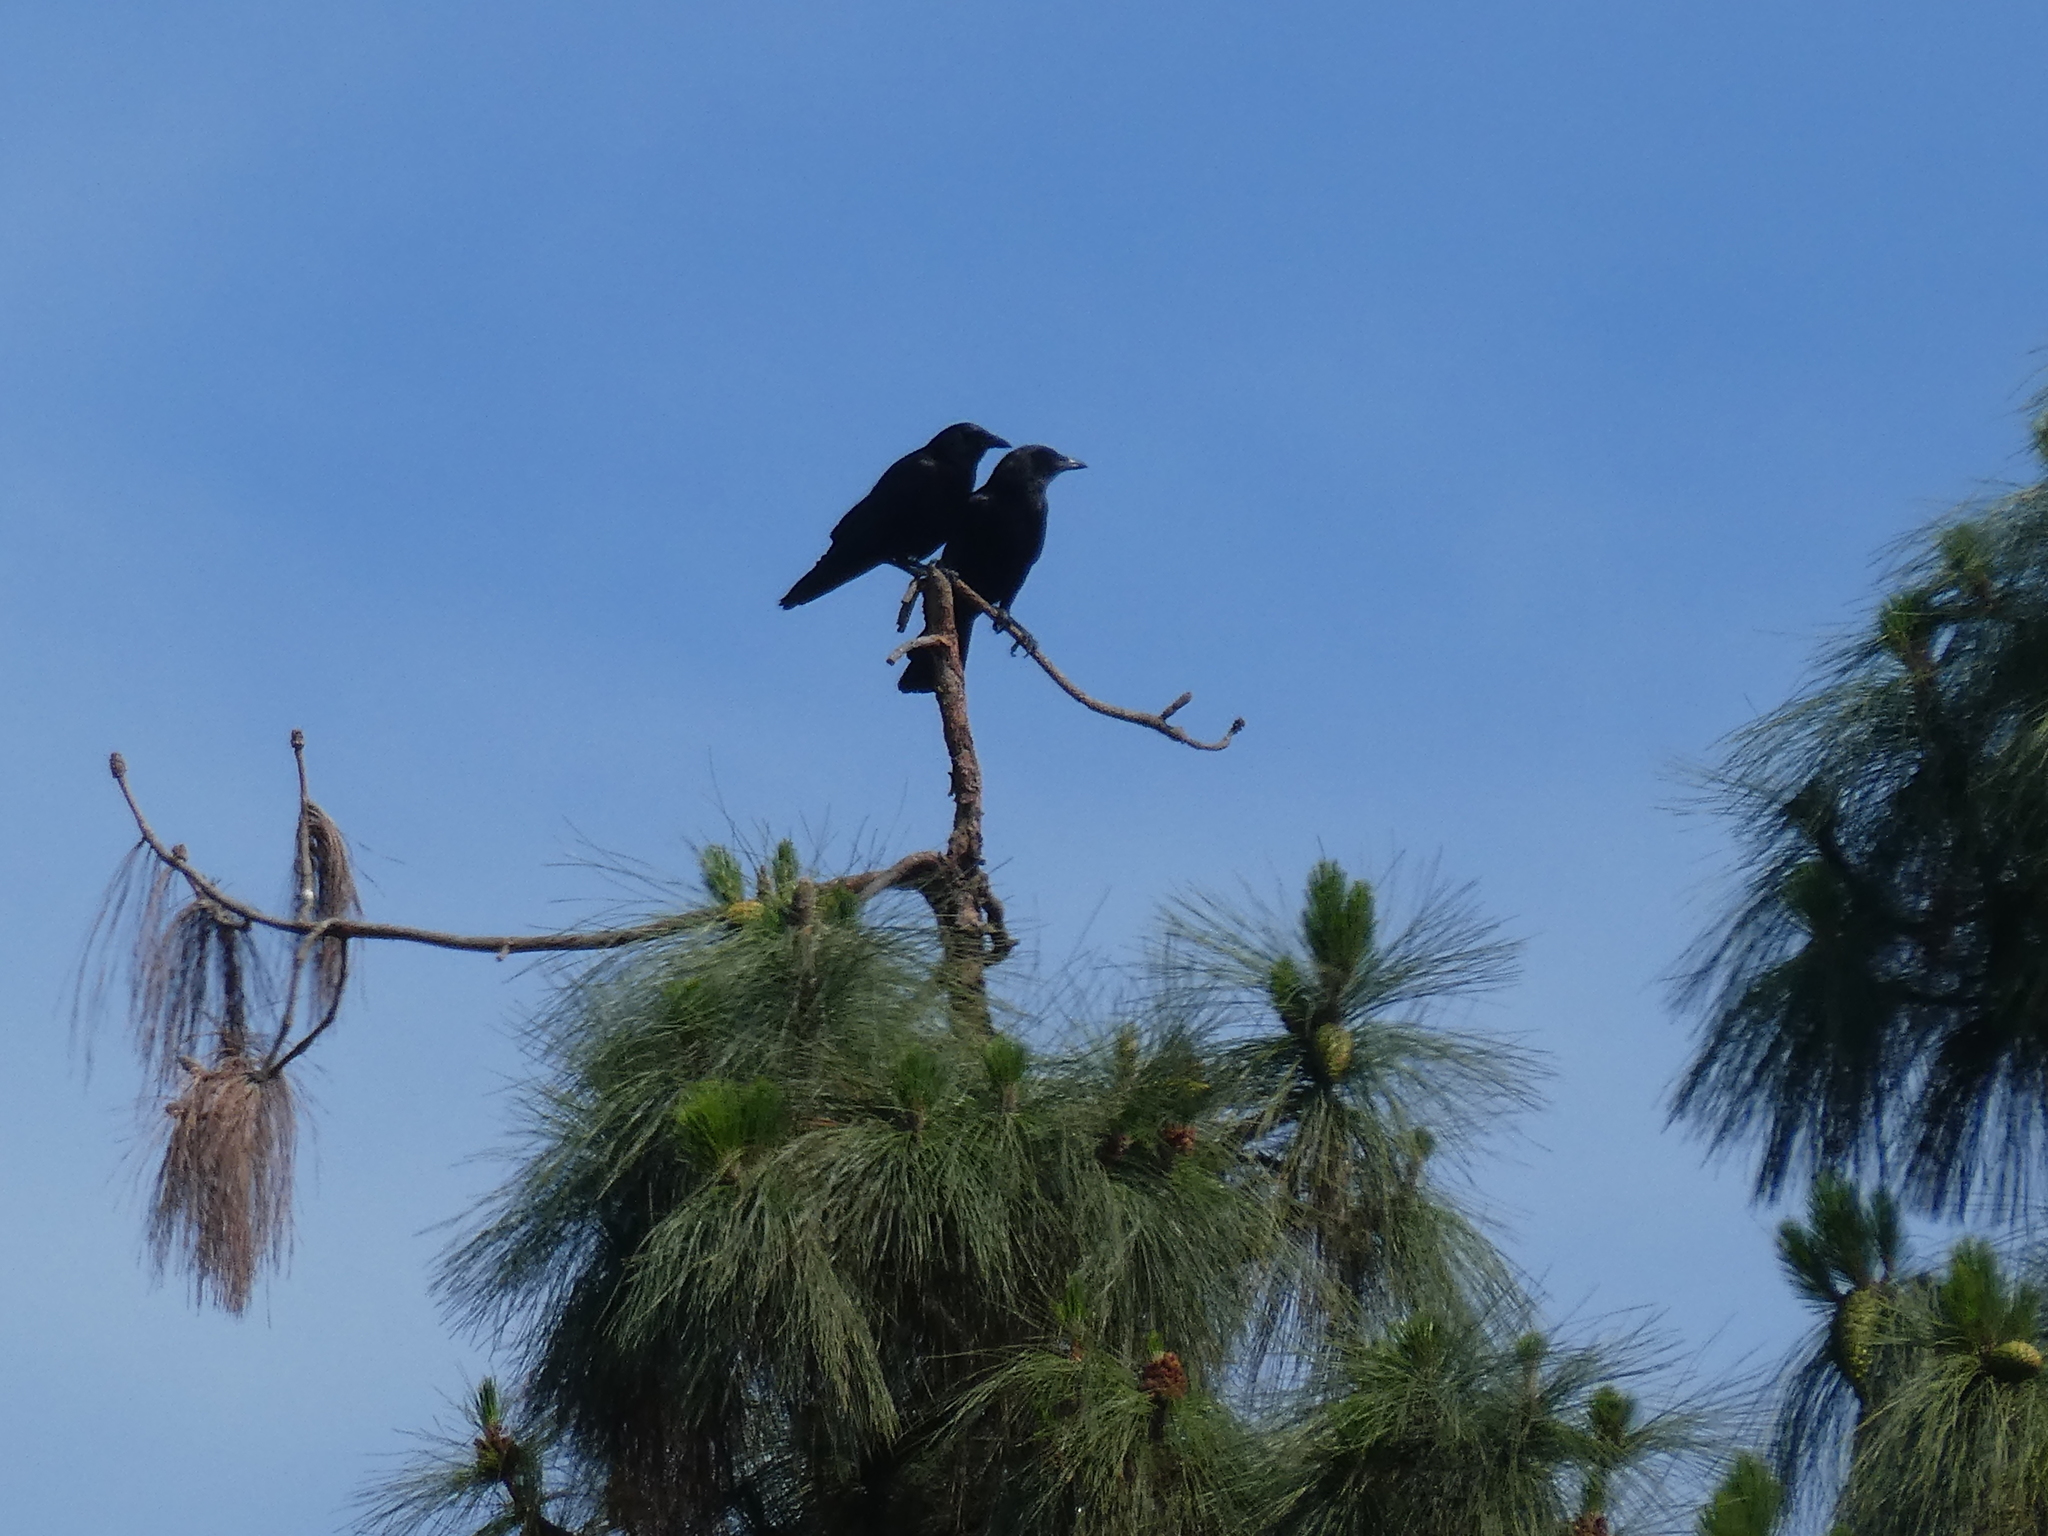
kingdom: Animalia
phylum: Chordata
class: Aves
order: Passeriformes
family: Corvidae
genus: Corvus
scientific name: Corvus brachyrhynchos
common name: American crow
